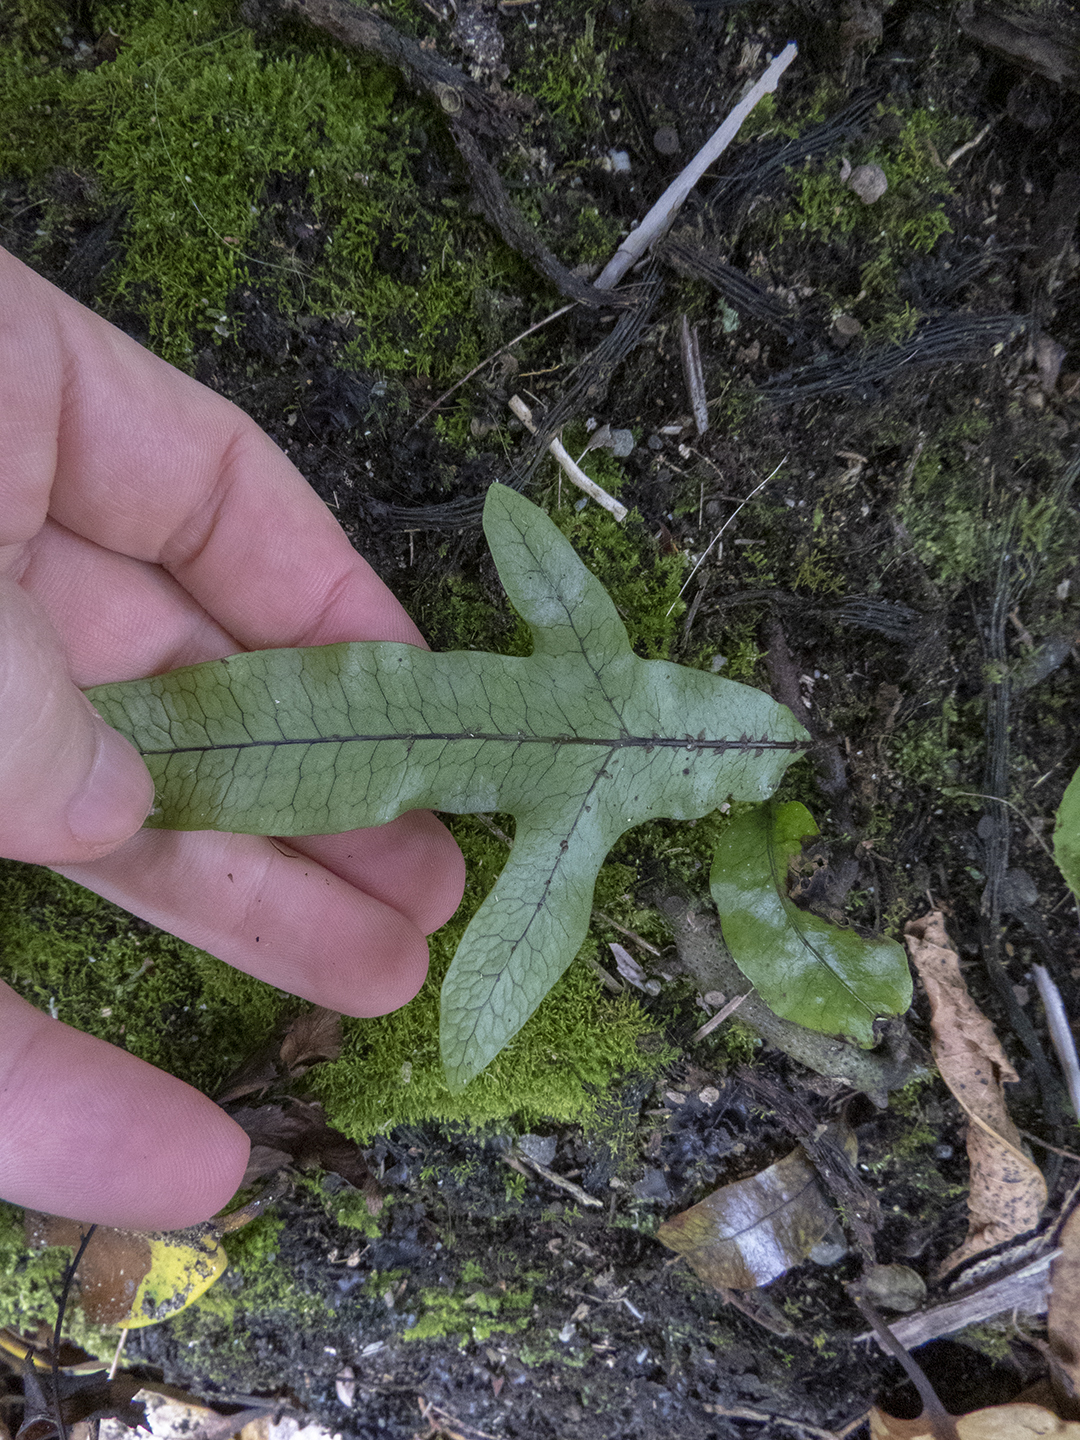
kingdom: Plantae
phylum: Tracheophyta
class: Polypodiopsida
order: Polypodiales
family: Polypodiaceae
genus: Lecanopteris
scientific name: Lecanopteris pustulata
